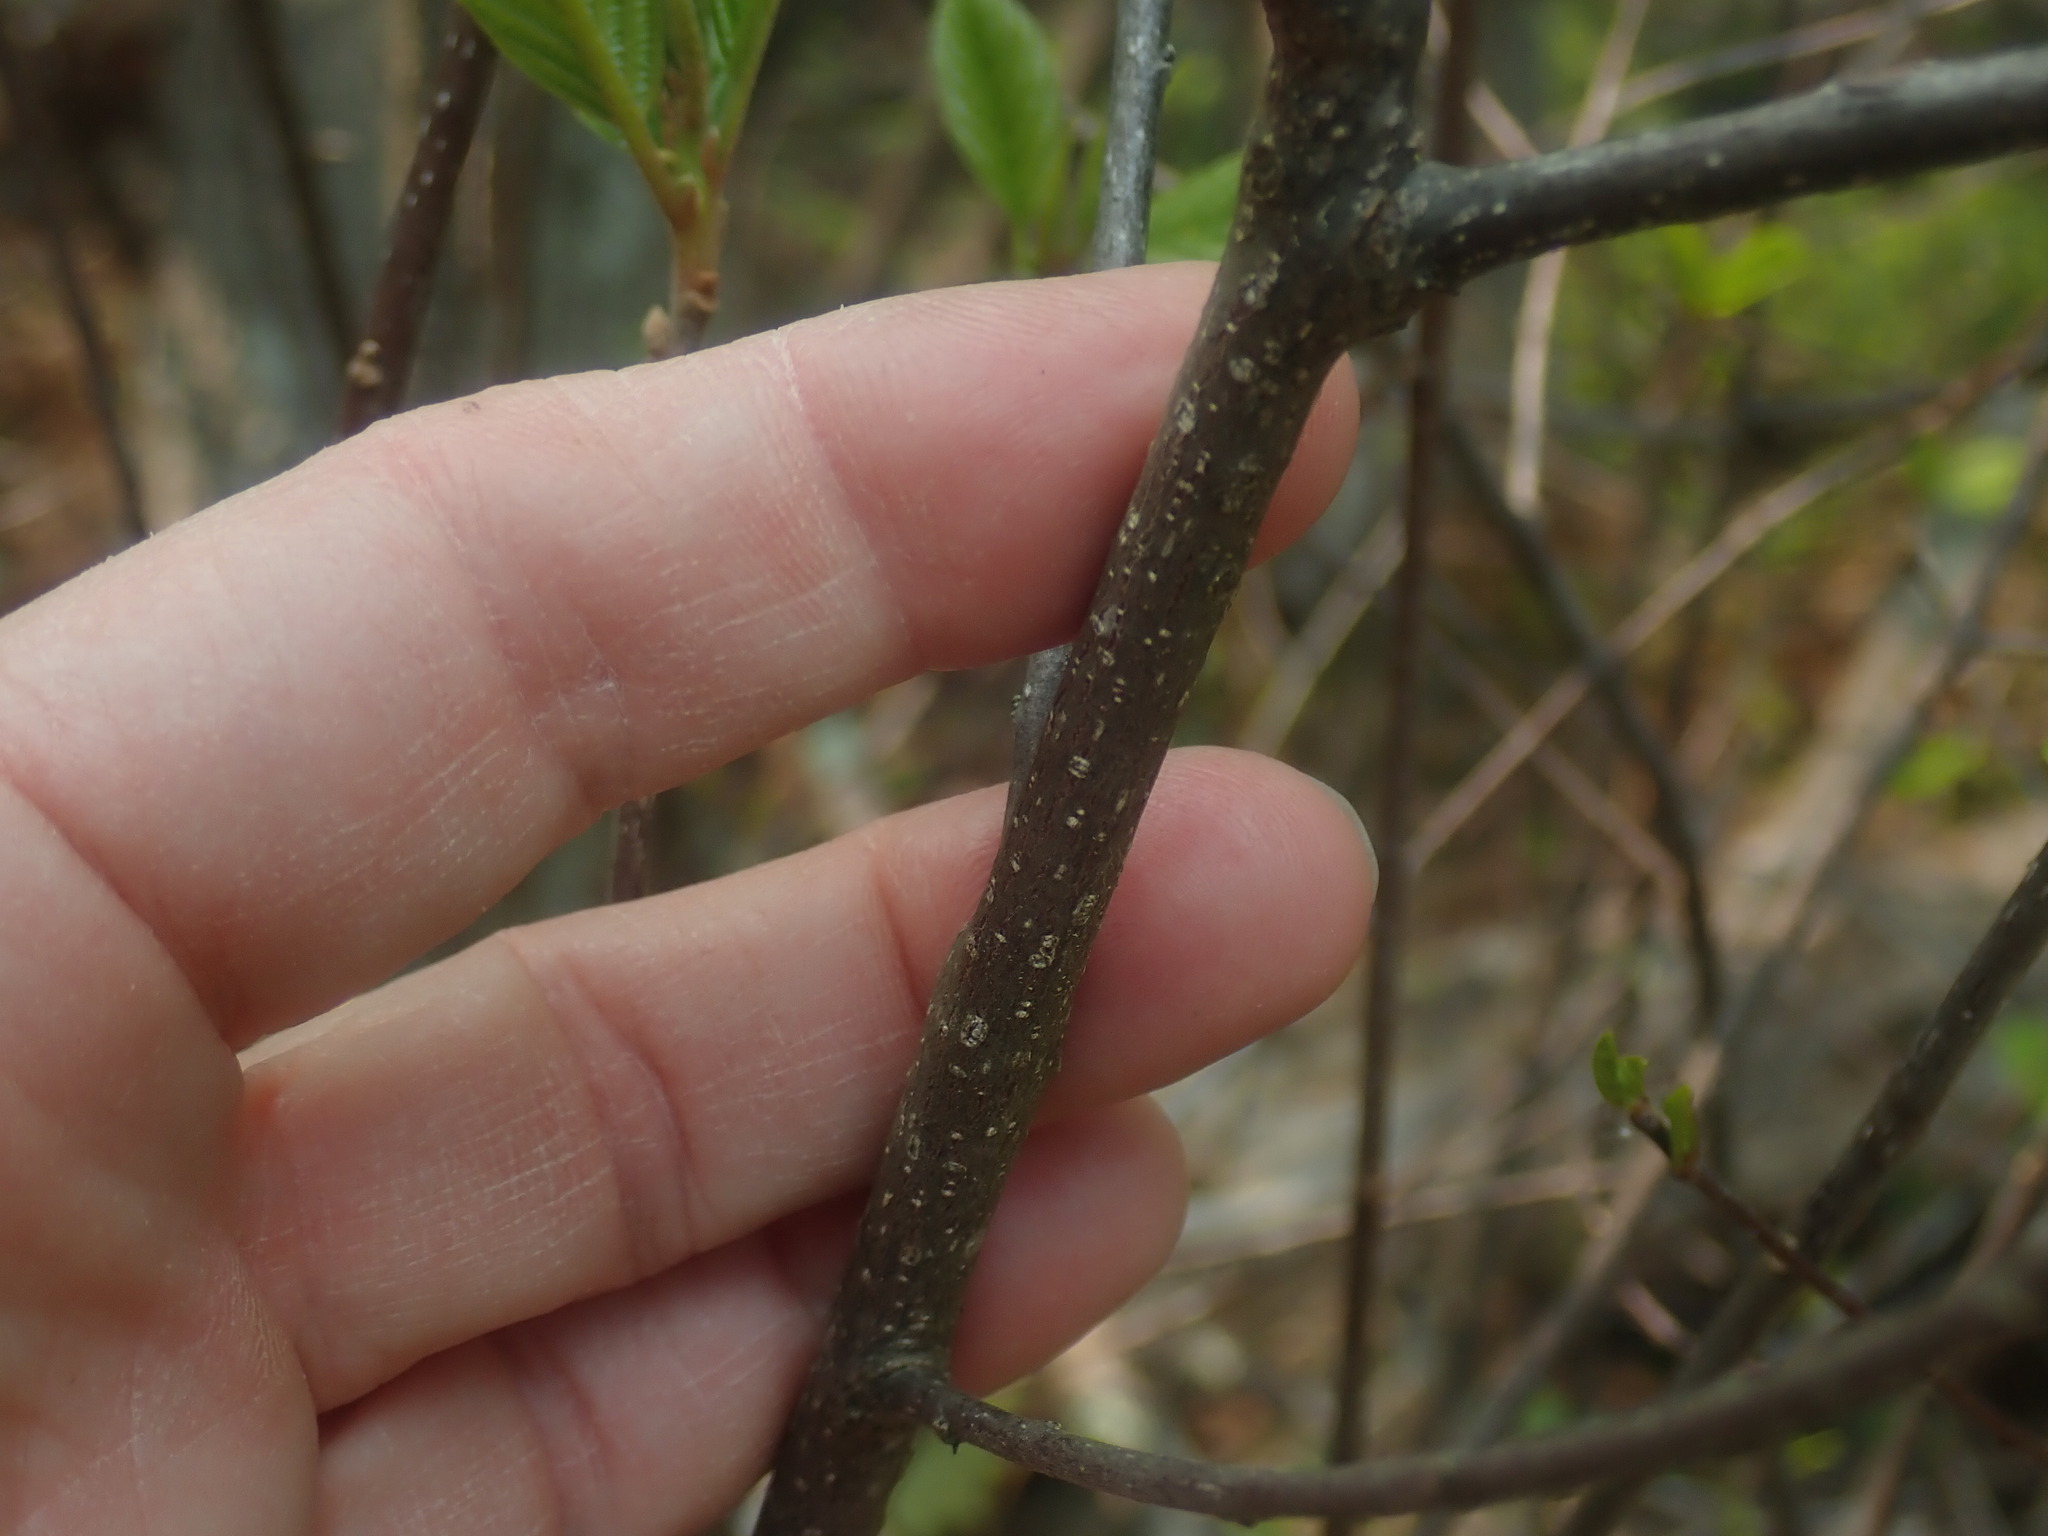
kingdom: Plantae
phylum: Tracheophyta
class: Magnoliopsida
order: Rosales
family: Rhamnaceae
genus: Frangula
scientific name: Frangula alnus
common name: Alder buckthorn
